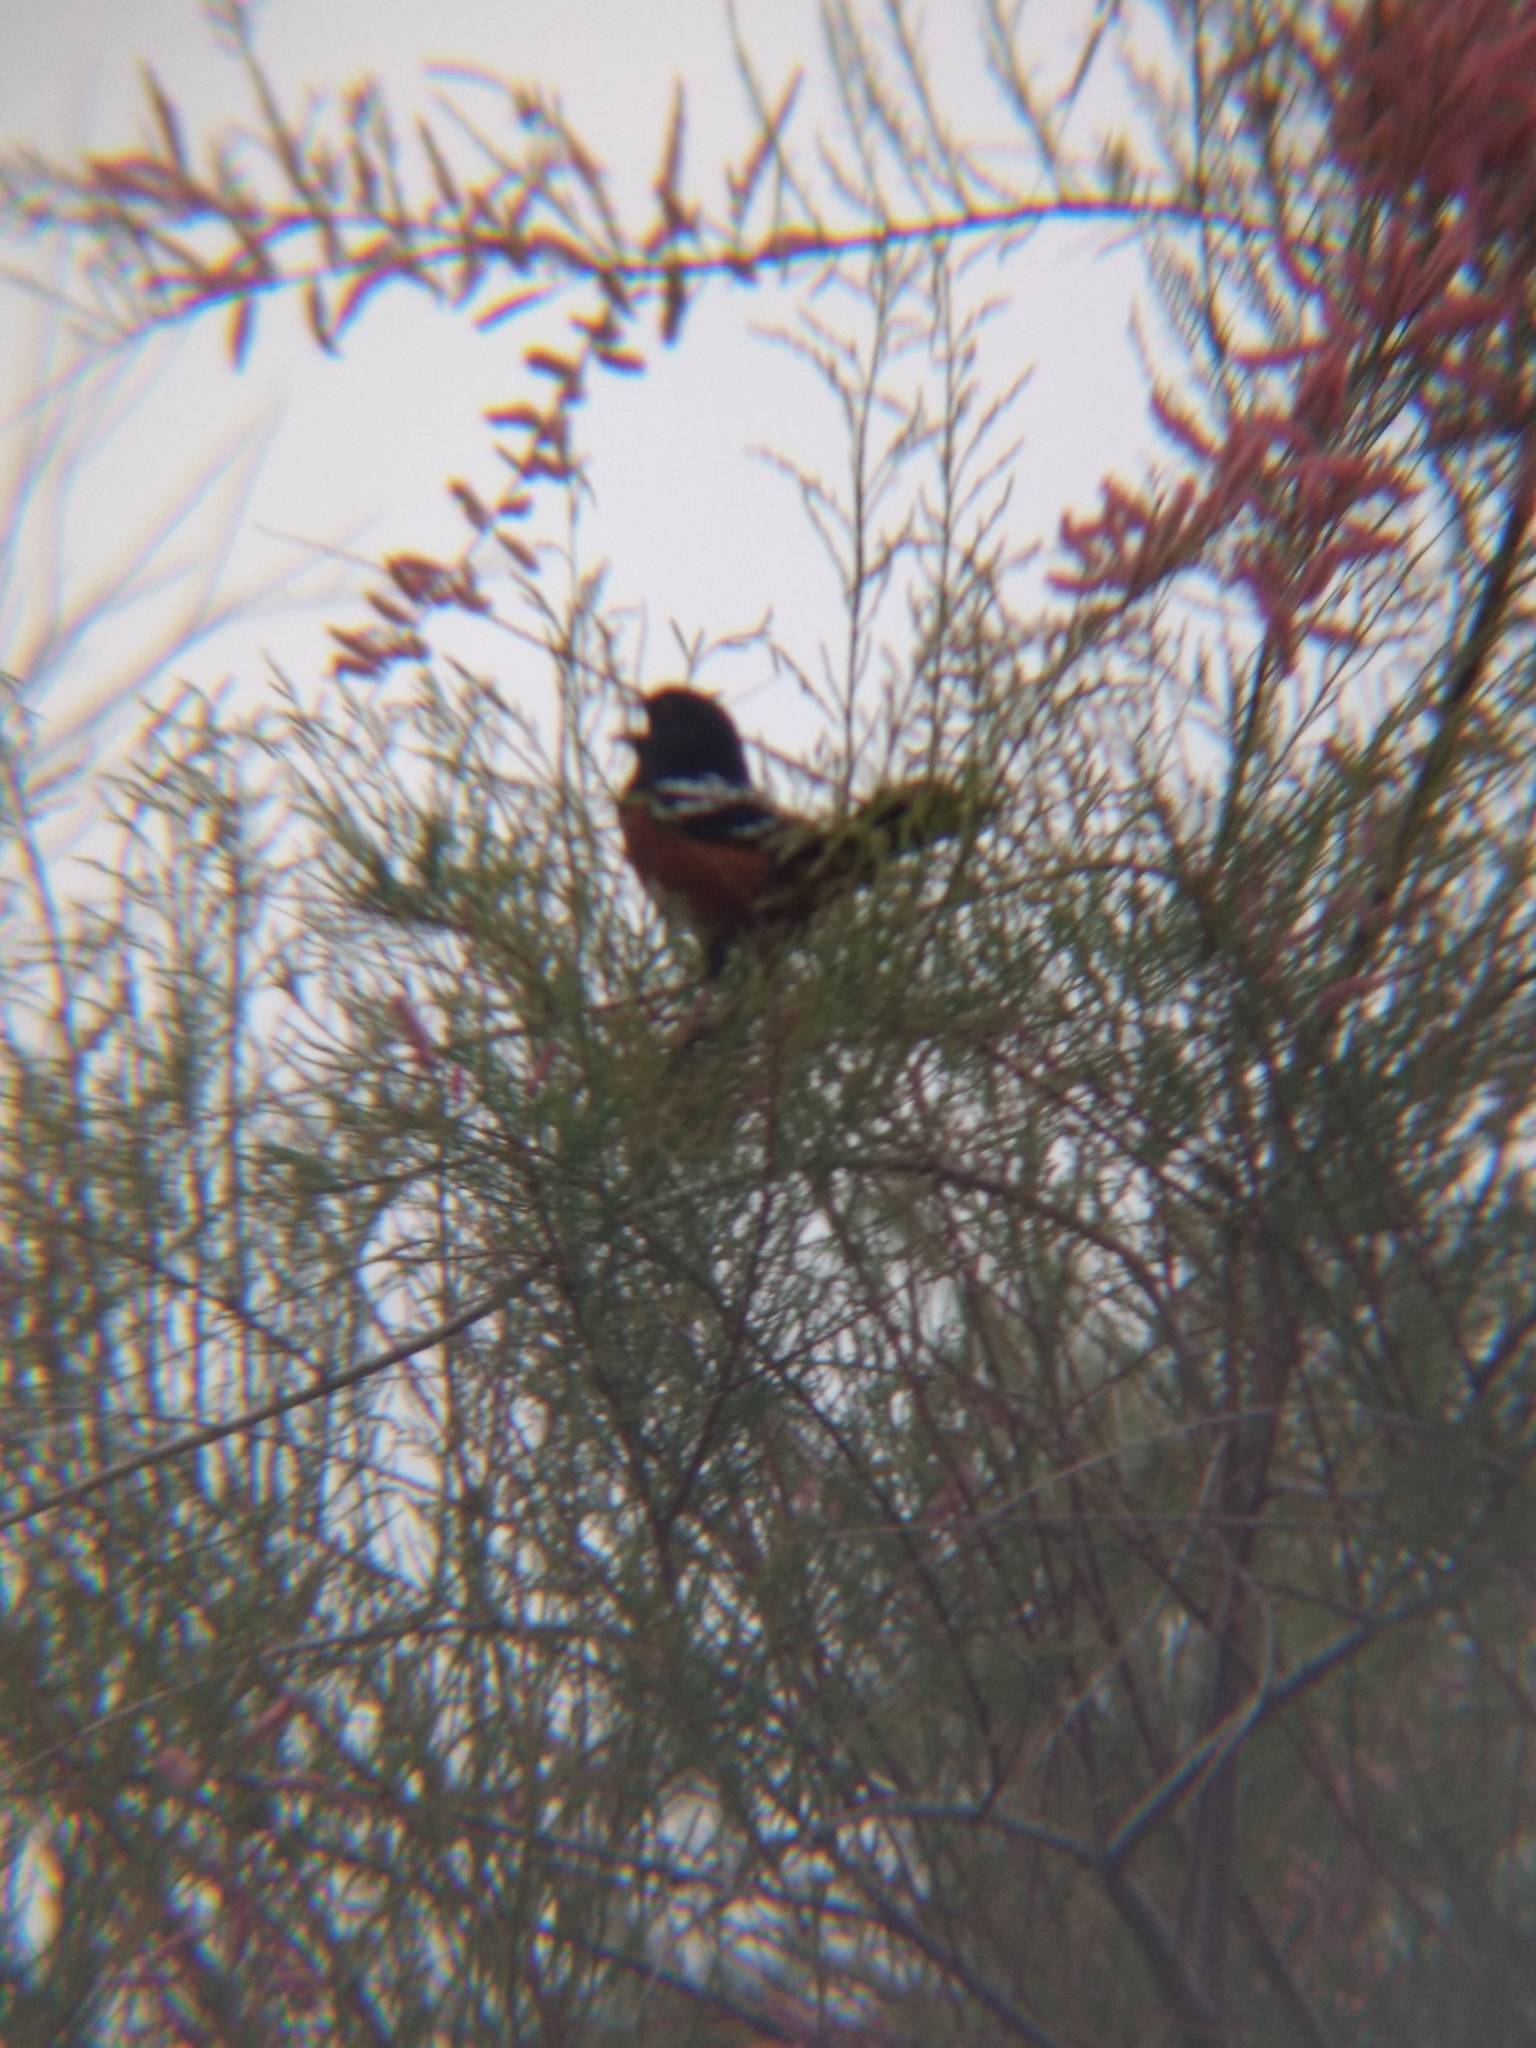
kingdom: Animalia
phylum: Chordata
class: Aves
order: Passeriformes
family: Passerellidae
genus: Pipilo
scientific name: Pipilo maculatus
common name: Spotted towhee
